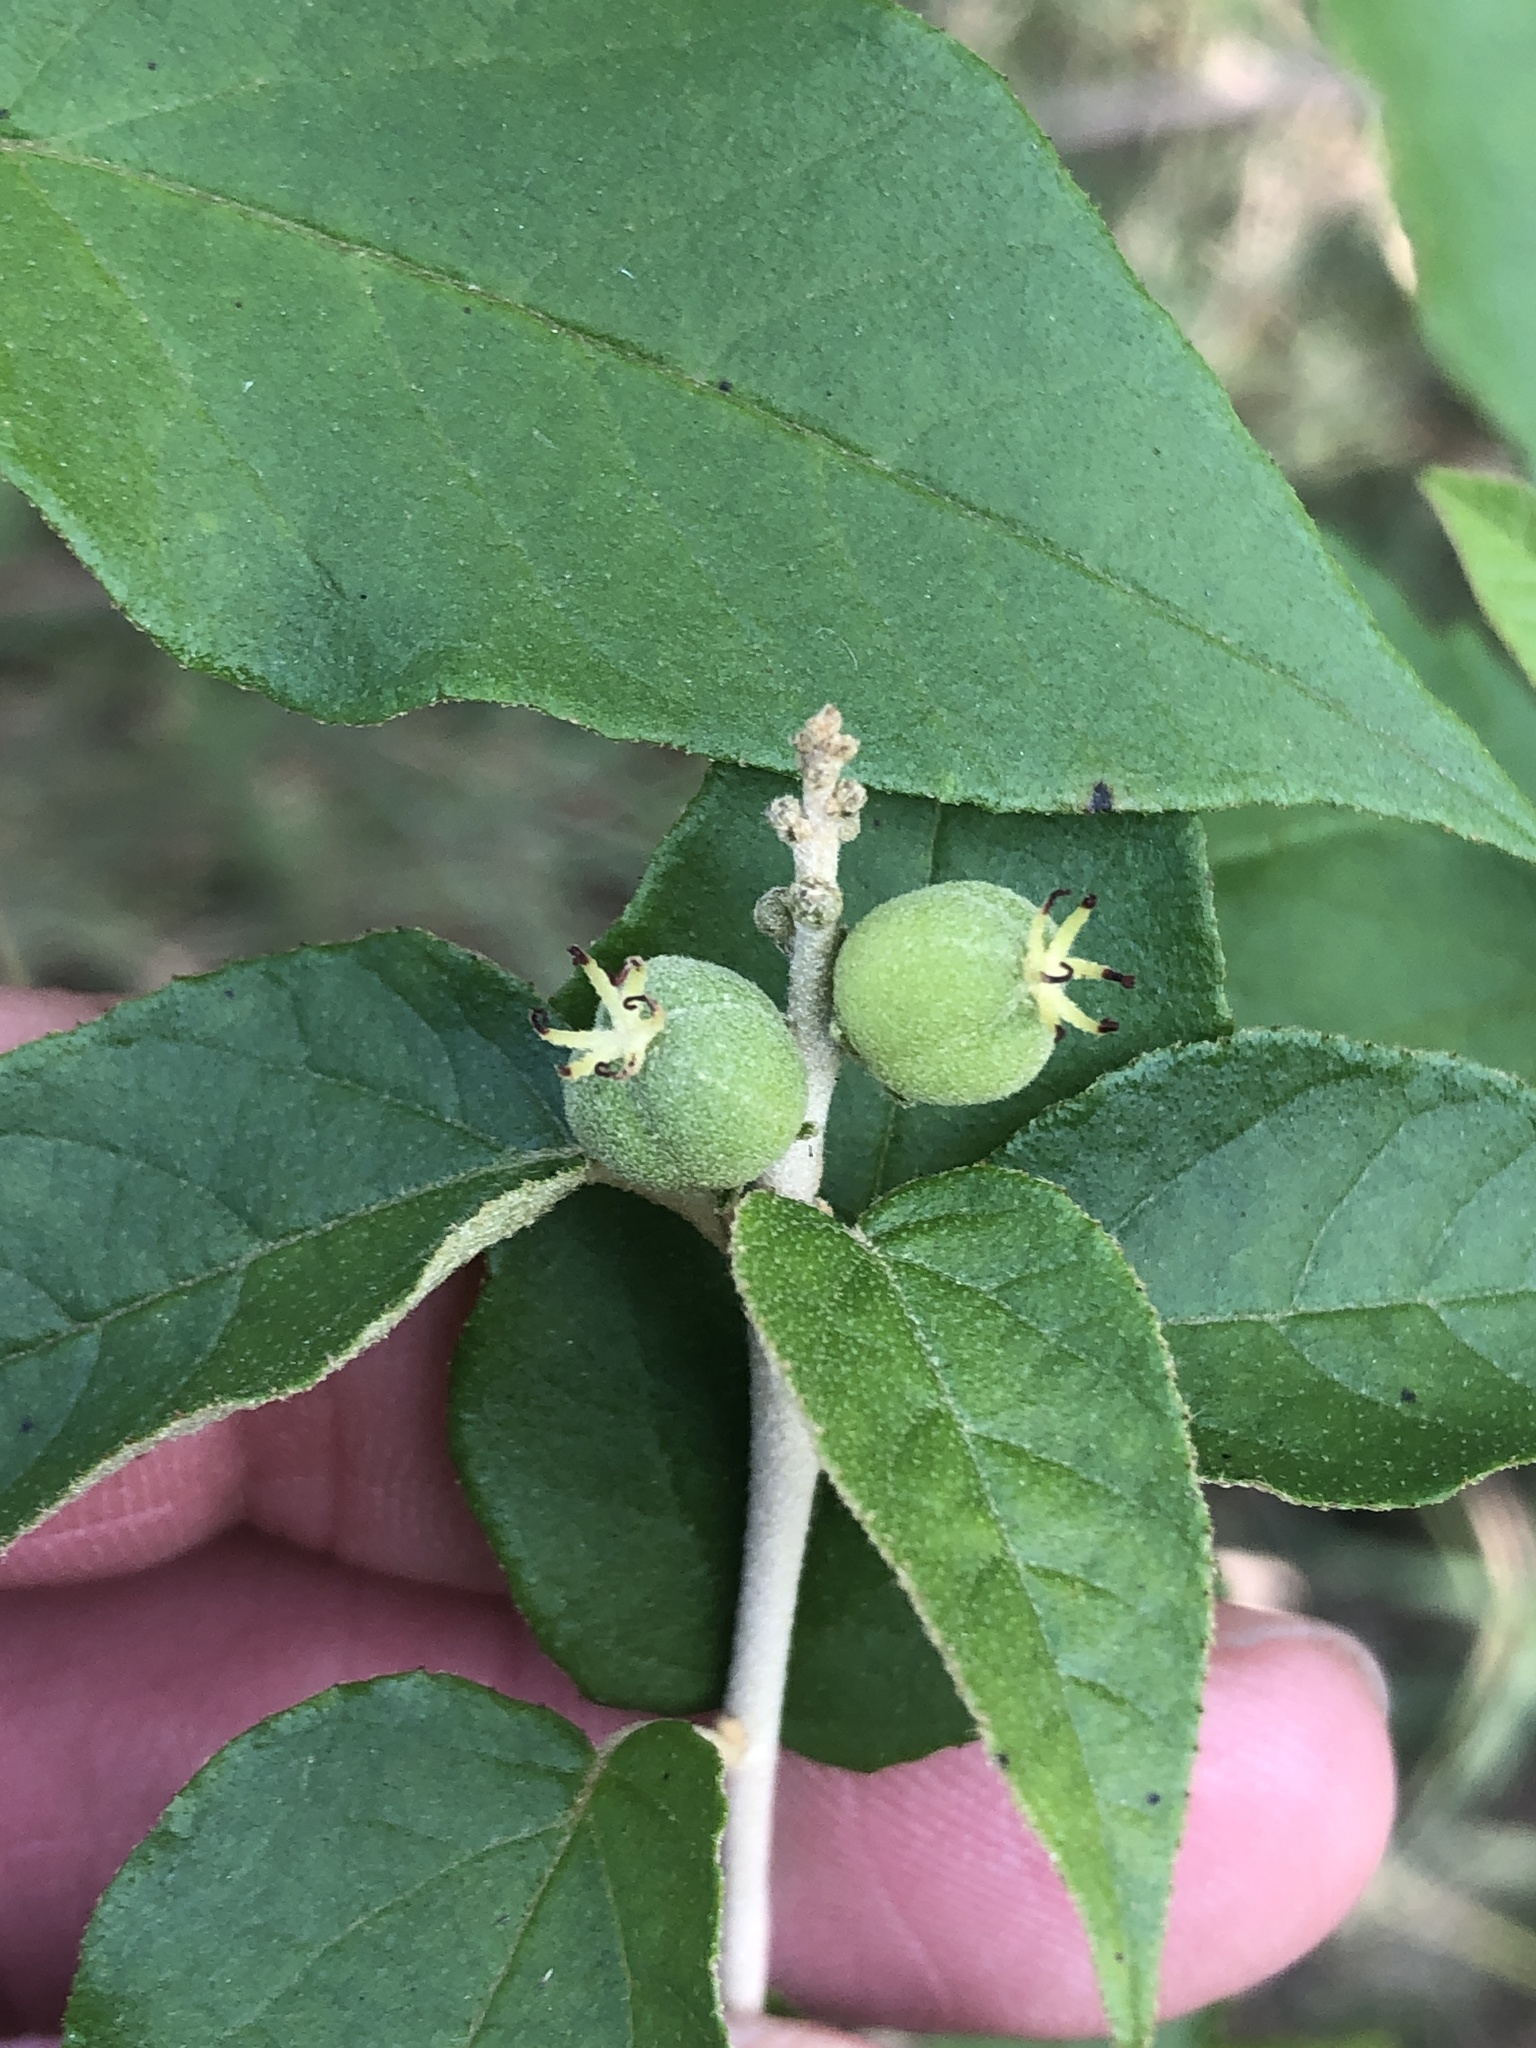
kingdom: Plantae
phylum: Tracheophyta
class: Magnoliopsida
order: Malpighiales
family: Euphorbiaceae
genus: Croton
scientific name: Croton fruticulosus
